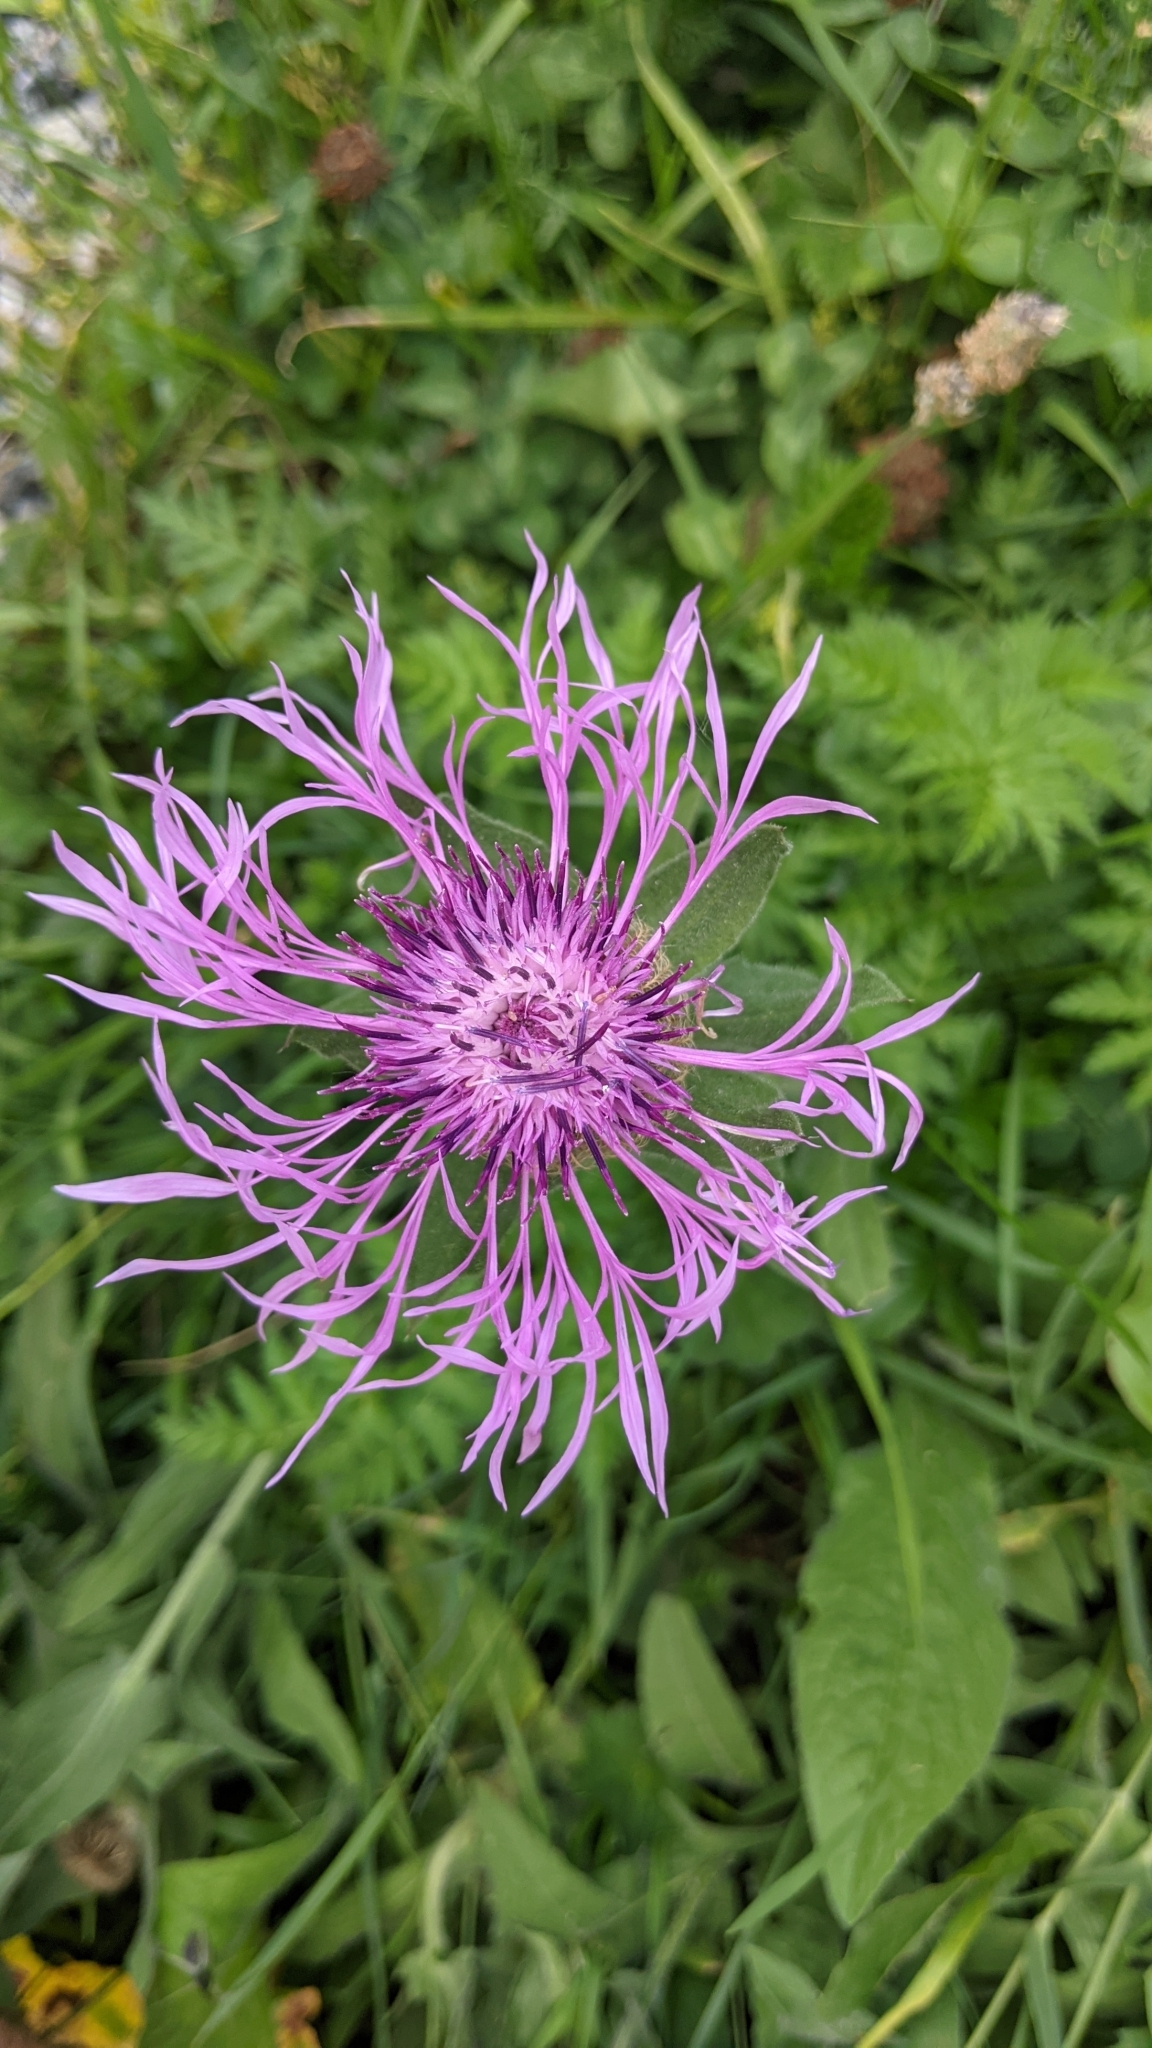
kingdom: Plantae
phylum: Tracheophyta
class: Magnoliopsida
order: Asterales
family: Asteraceae
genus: Centaurea
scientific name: Centaurea nervosa
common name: Singleflower knapweed
